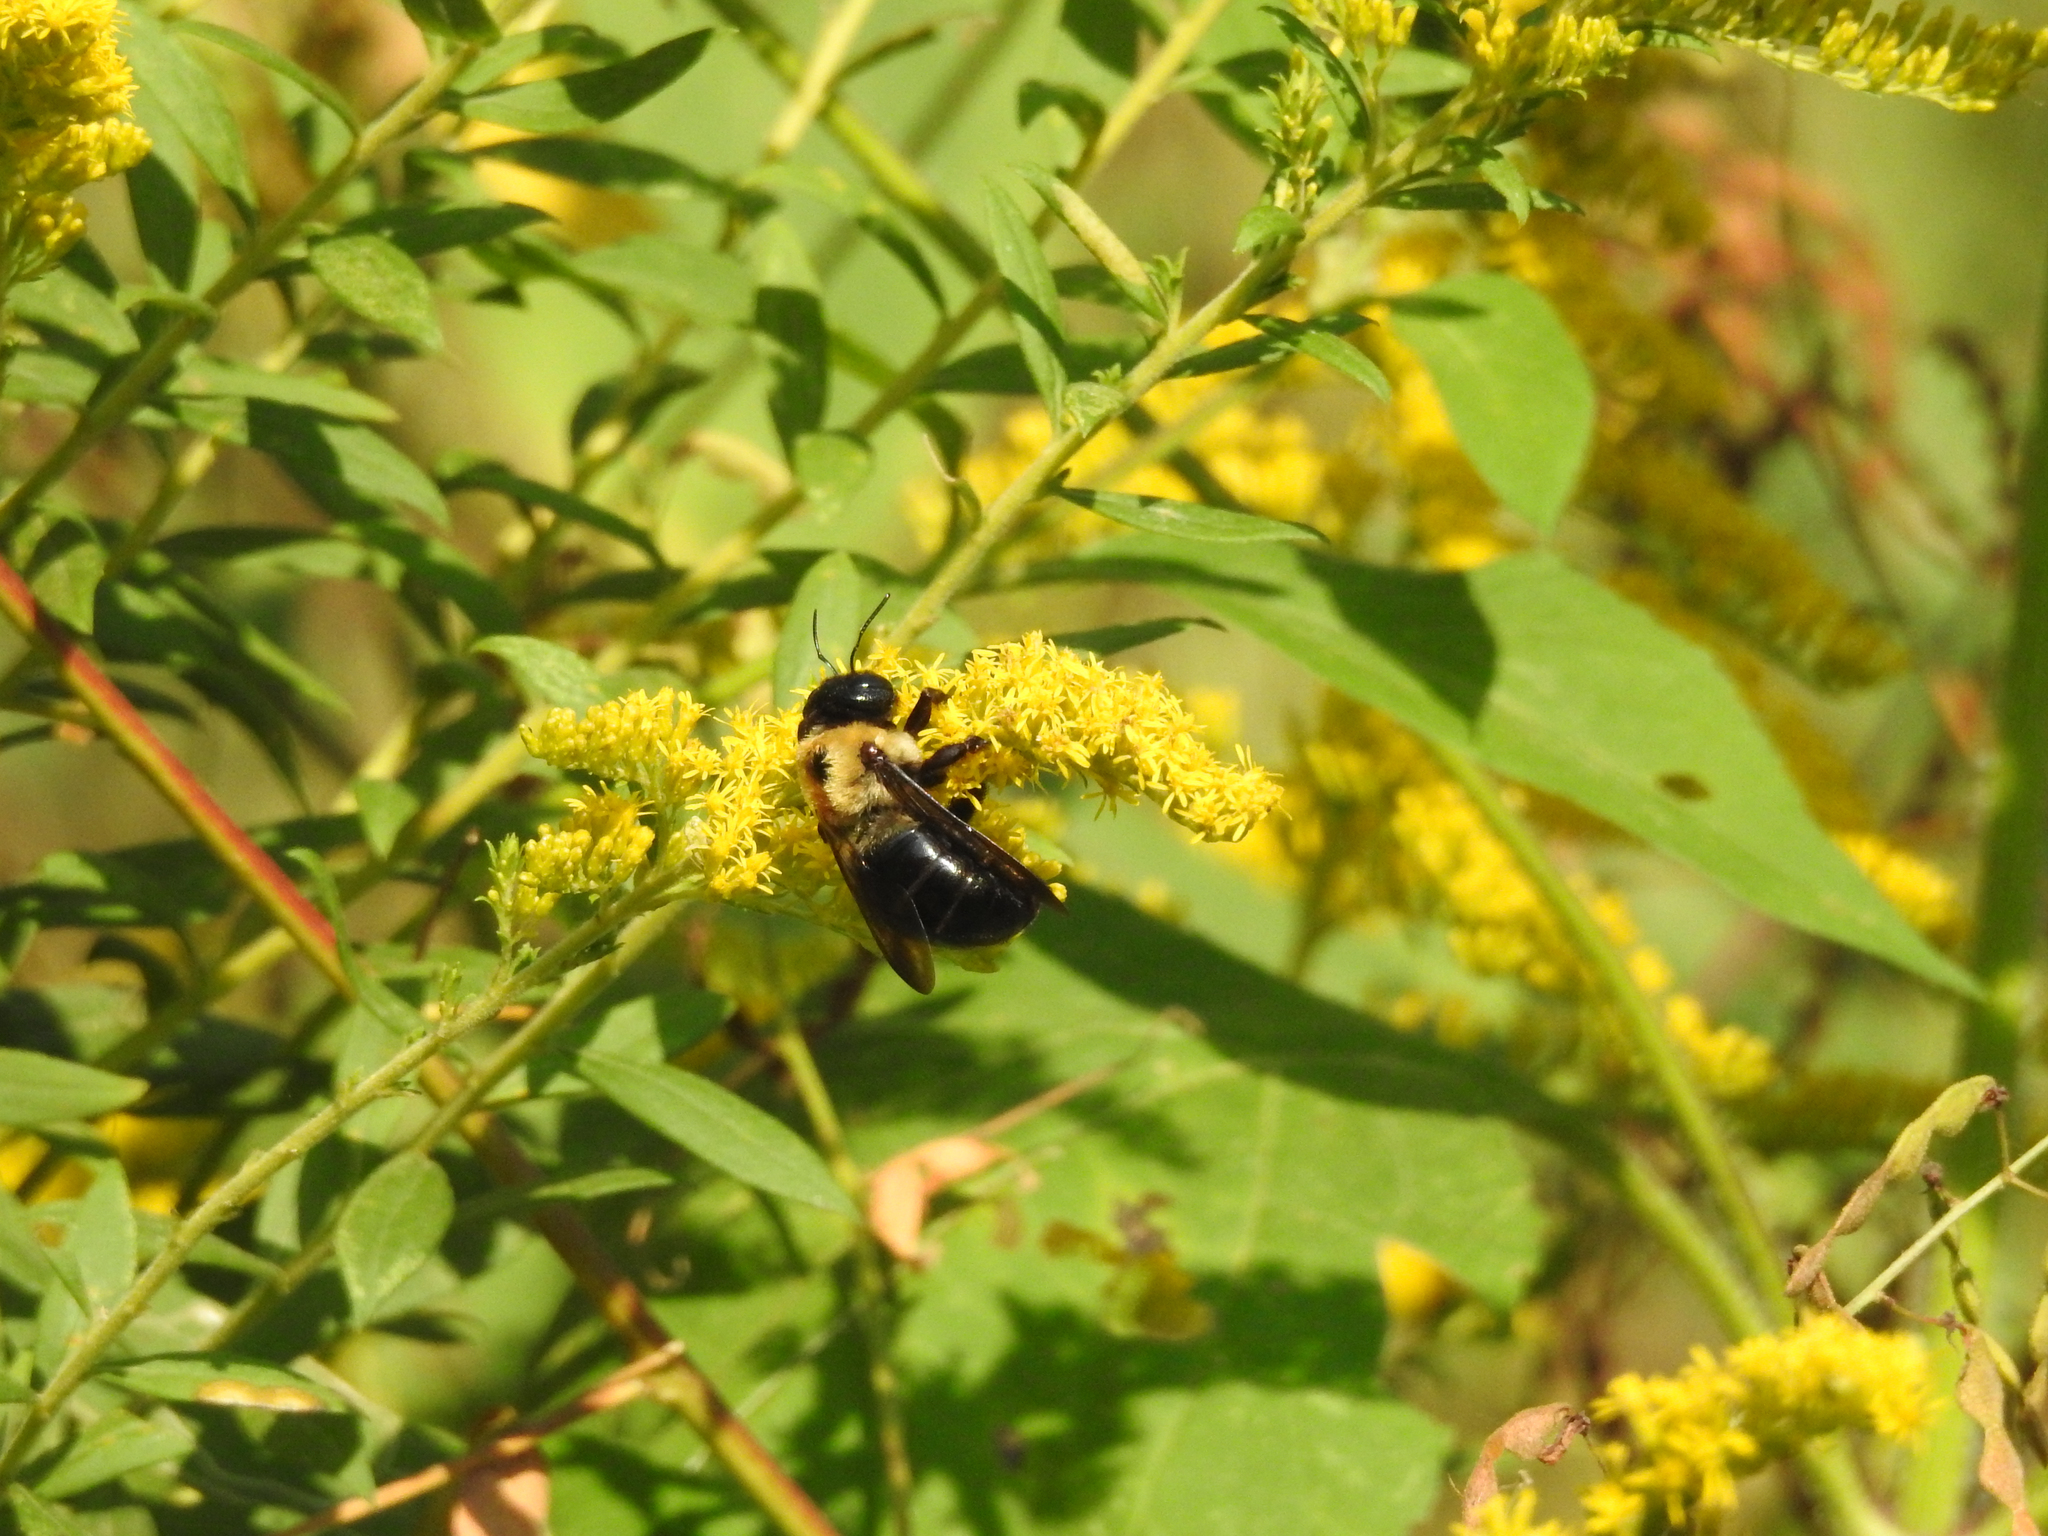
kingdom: Animalia
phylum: Arthropoda
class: Insecta
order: Hymenoptera
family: Apidae
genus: Xylocopa
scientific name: Xylocopa virginica
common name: Carpenter bee
